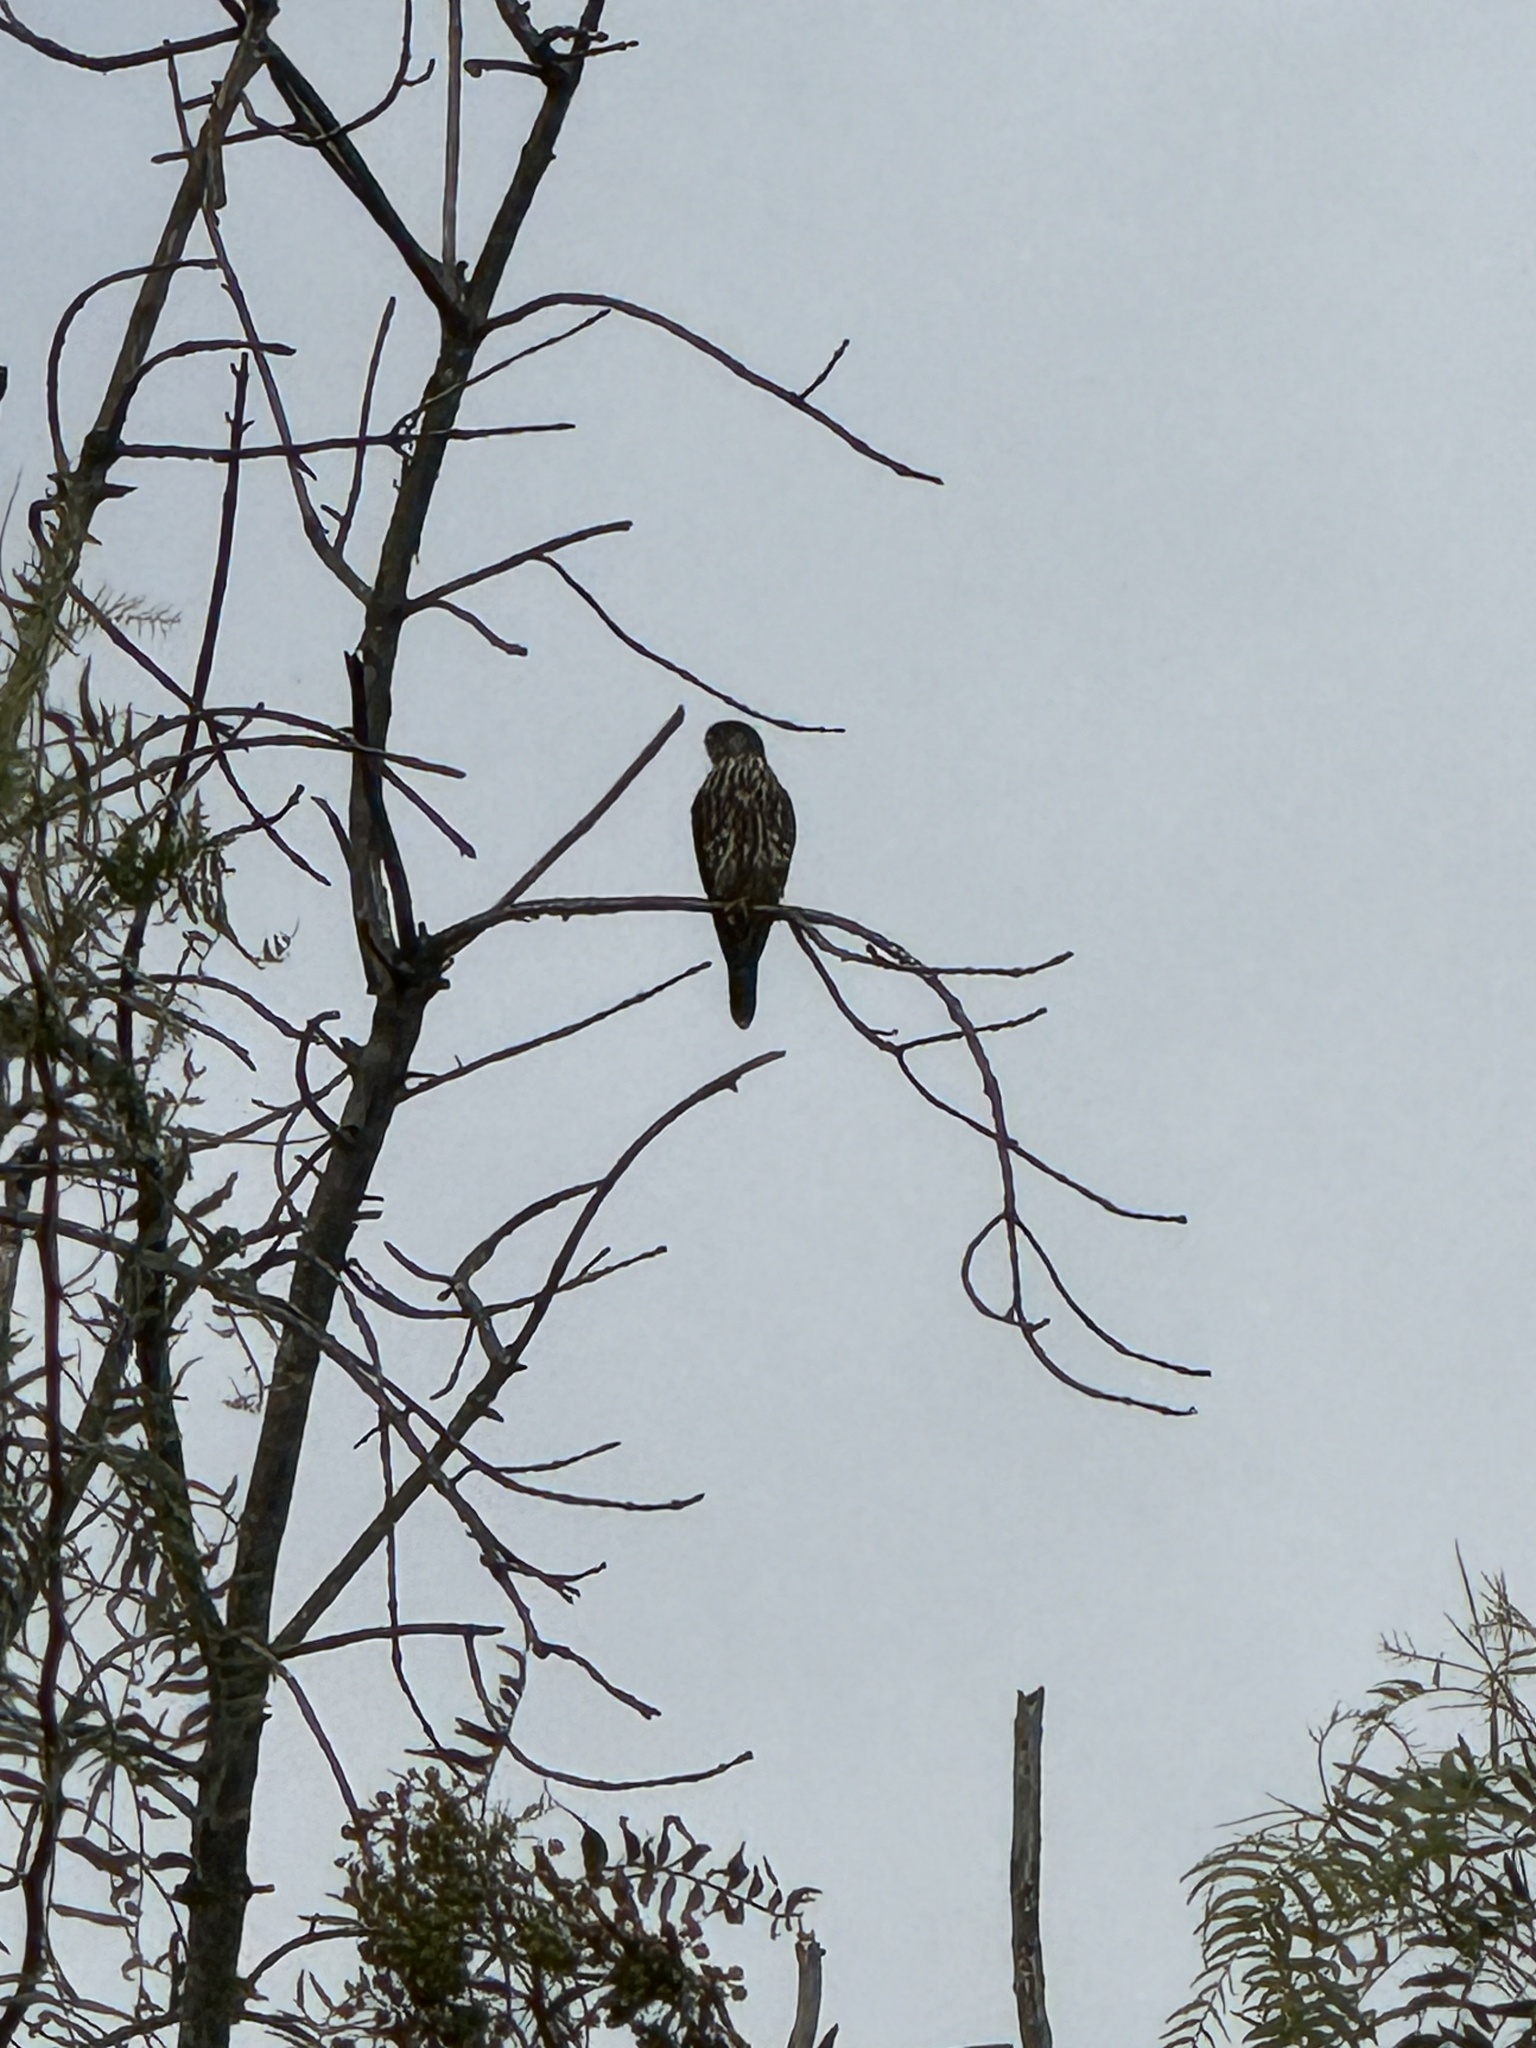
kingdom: Animalia
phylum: Chordata
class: Aves
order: Falconiformes
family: Falconidae
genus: Falco
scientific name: Falco columbarius
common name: Merlin
